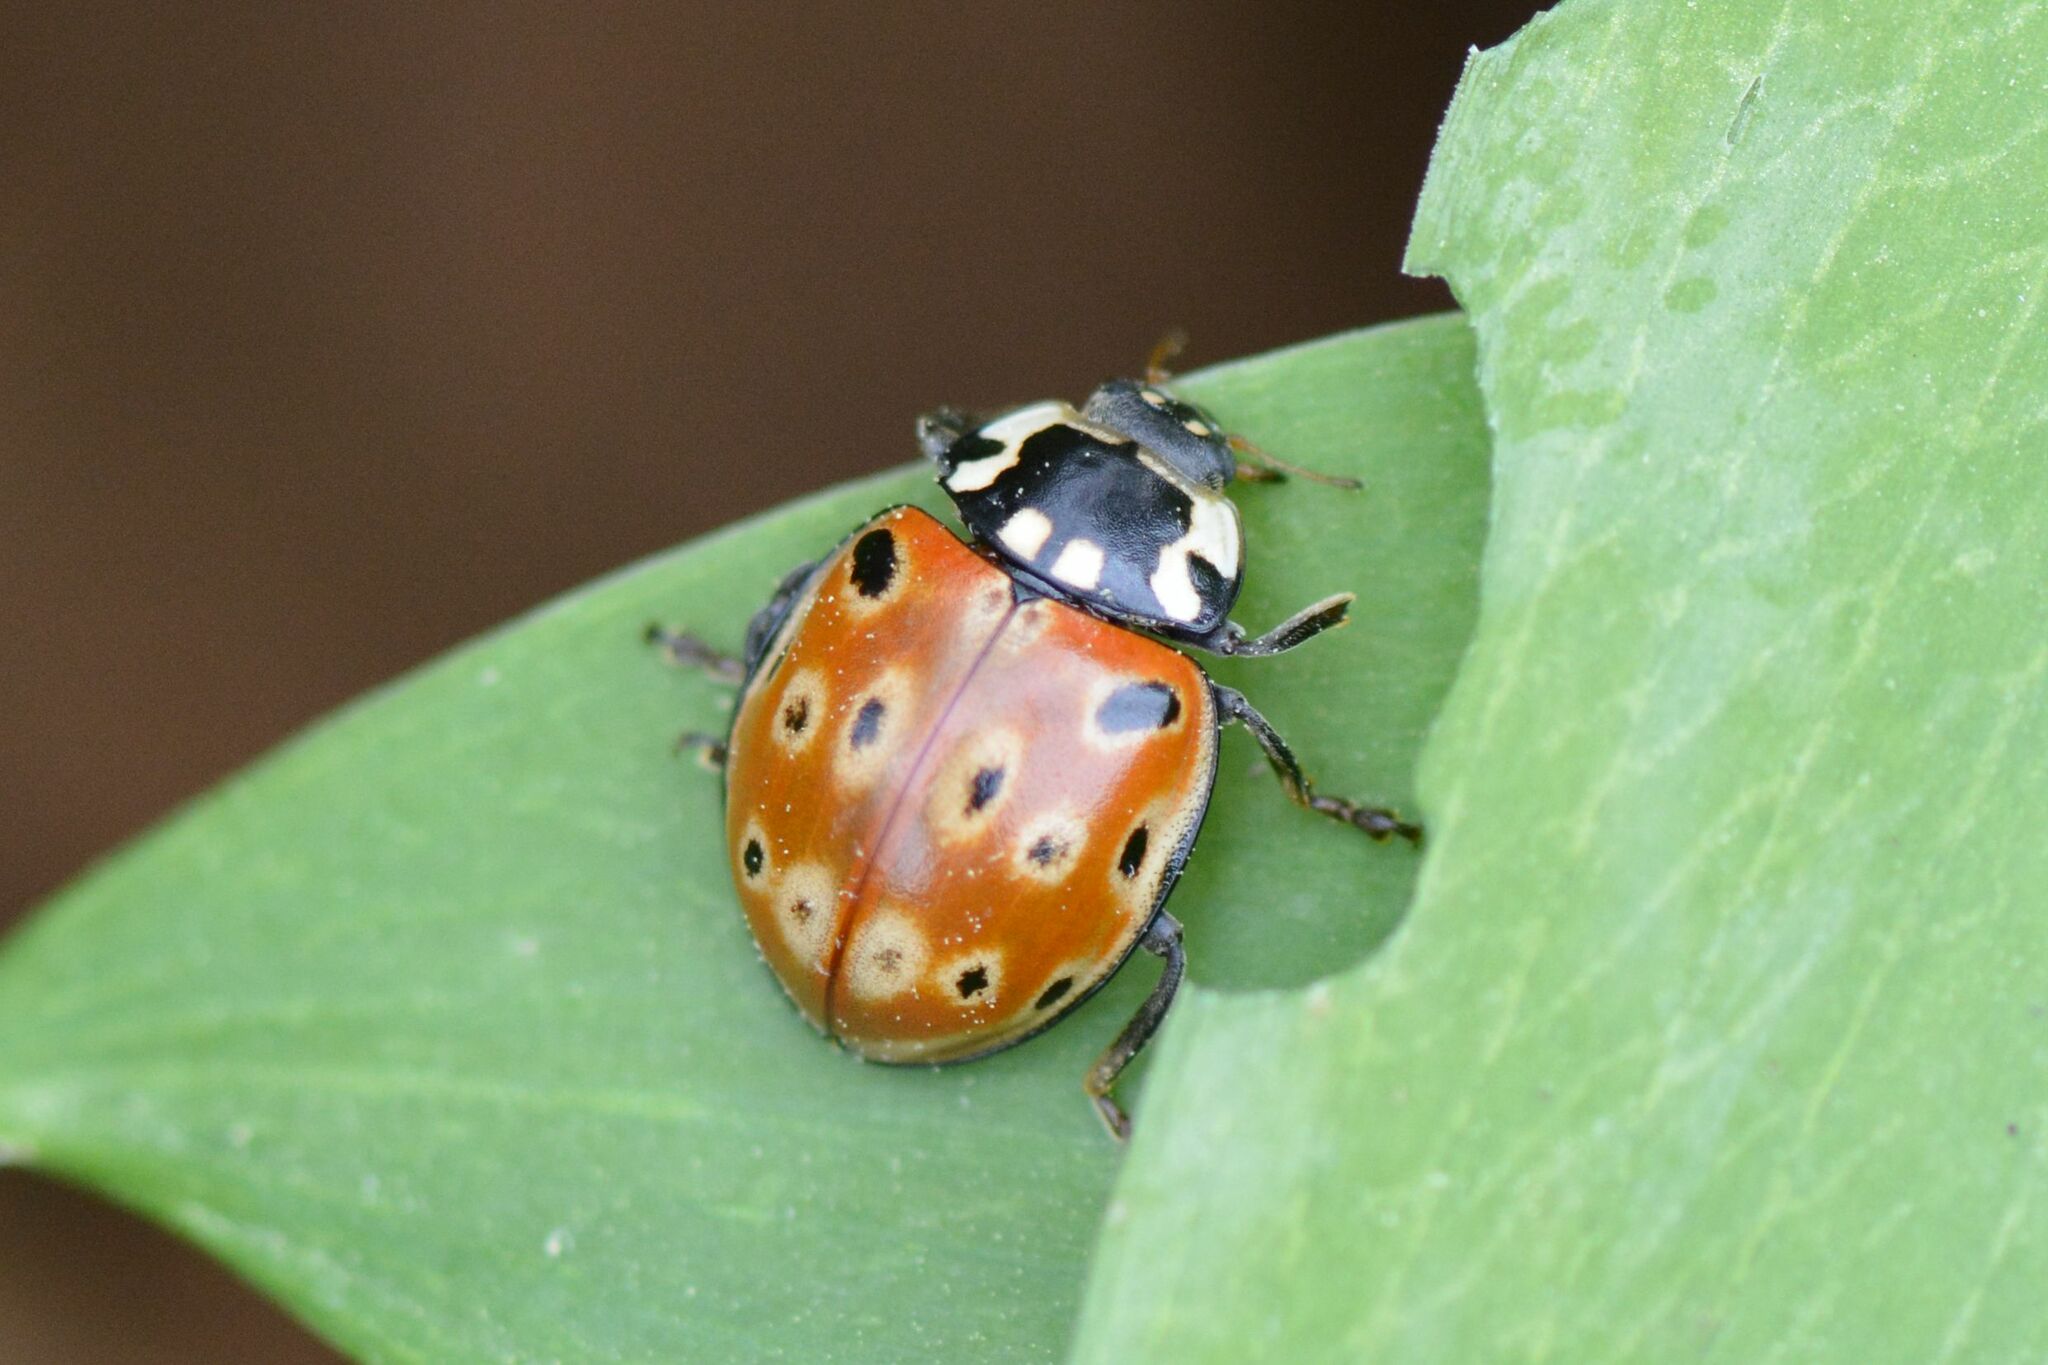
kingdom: Animalia
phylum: Arthropoda
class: Insecta
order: Coleoptera
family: Coccinellidae
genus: Anatis
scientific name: Anatis ocellata
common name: Eyed ladybird
